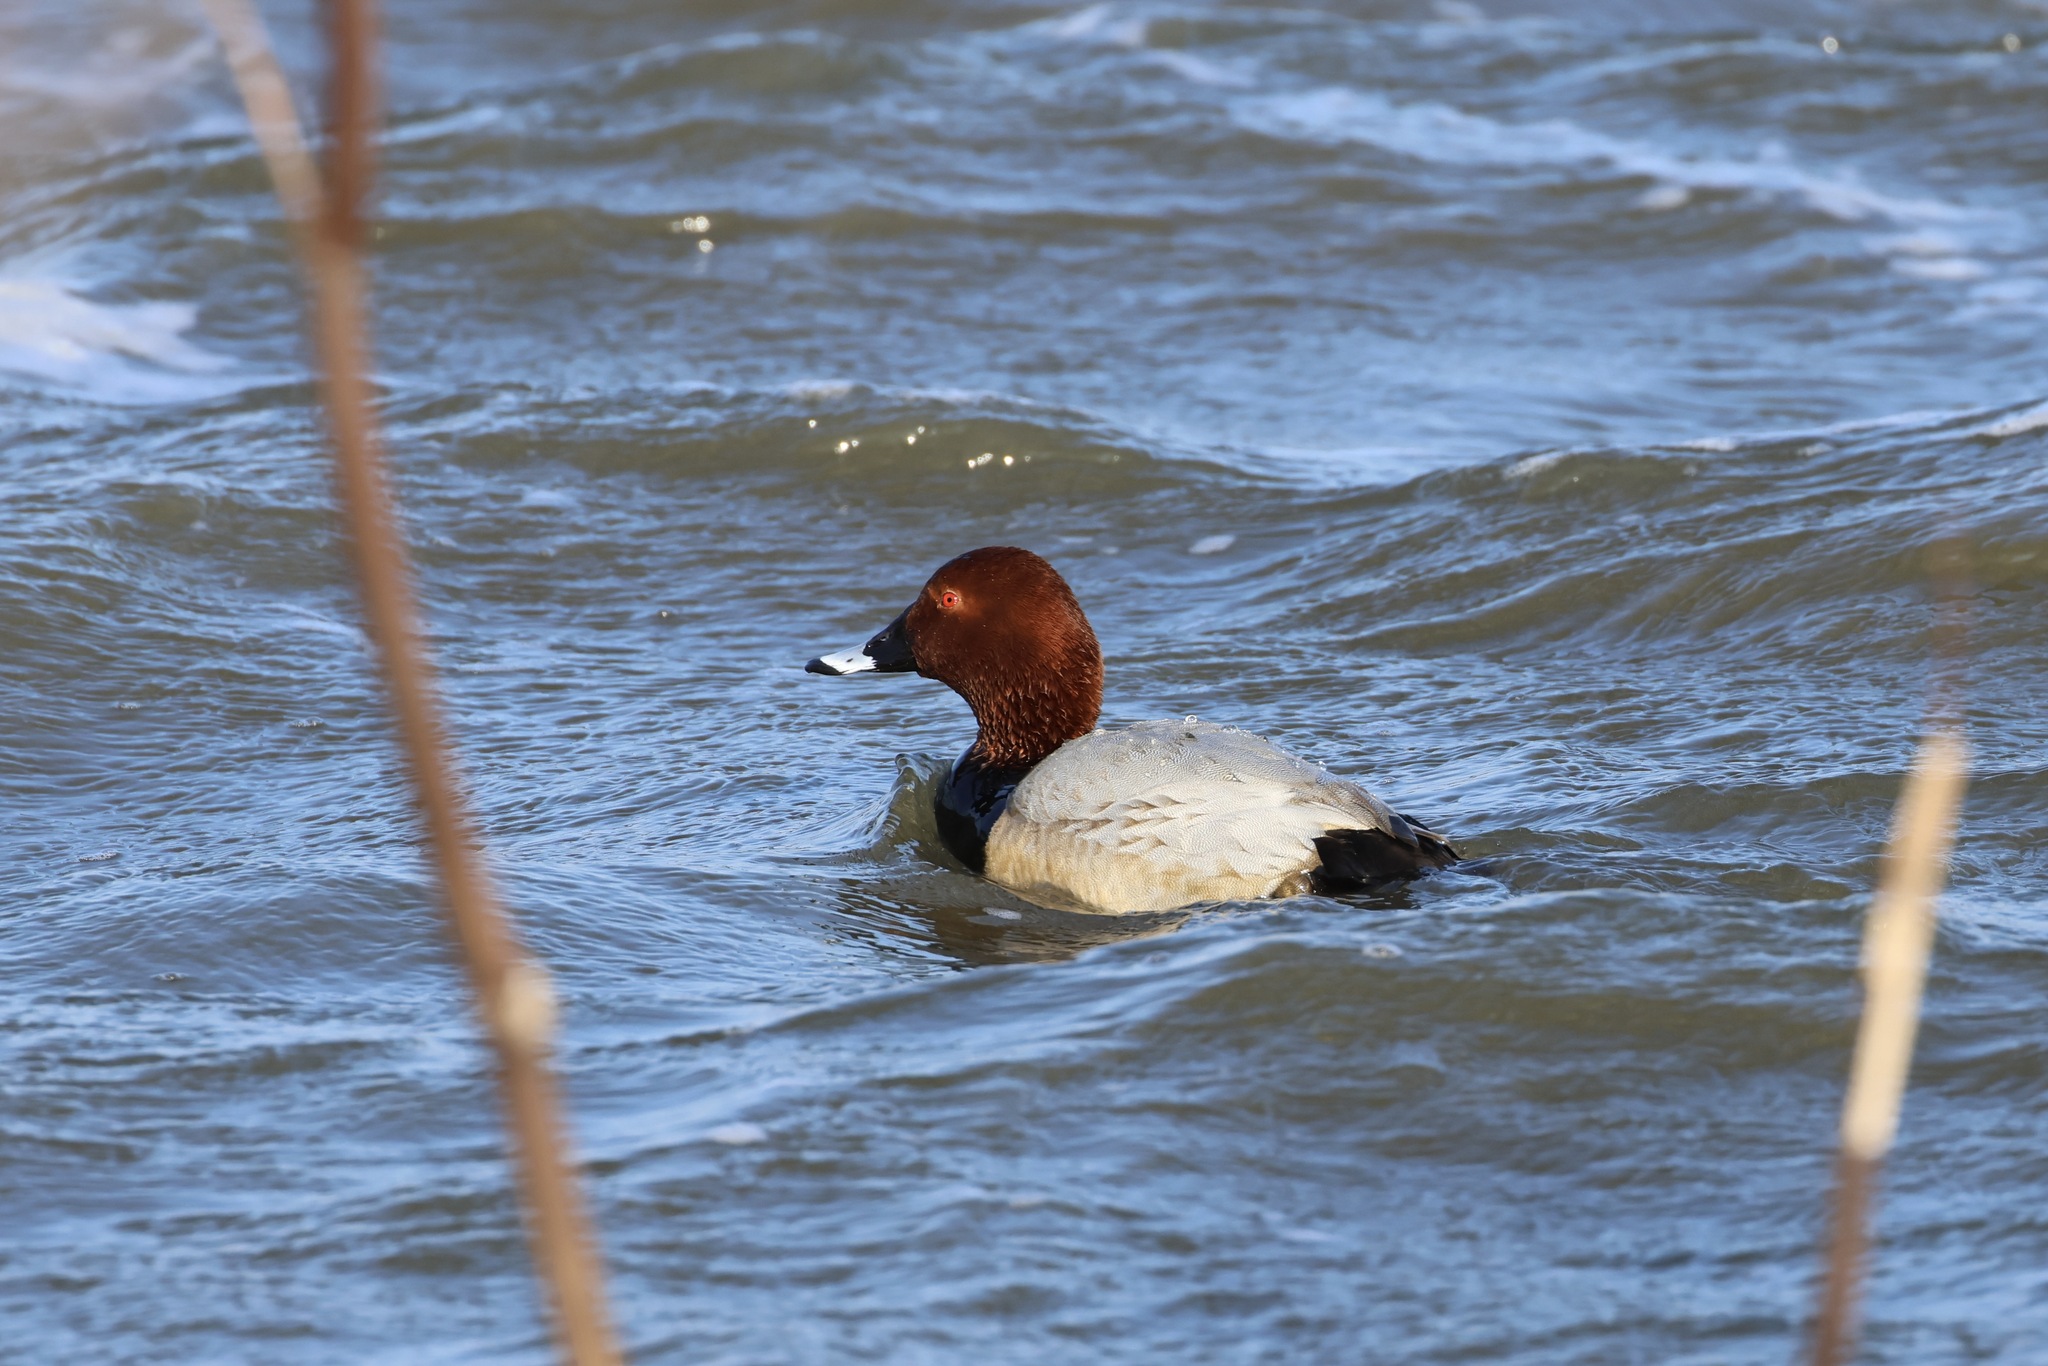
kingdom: Animalia
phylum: Chordata
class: Aves
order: Anseriformes
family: Anatidae
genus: Aythya
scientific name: Aythya ferina
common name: Common pochard
